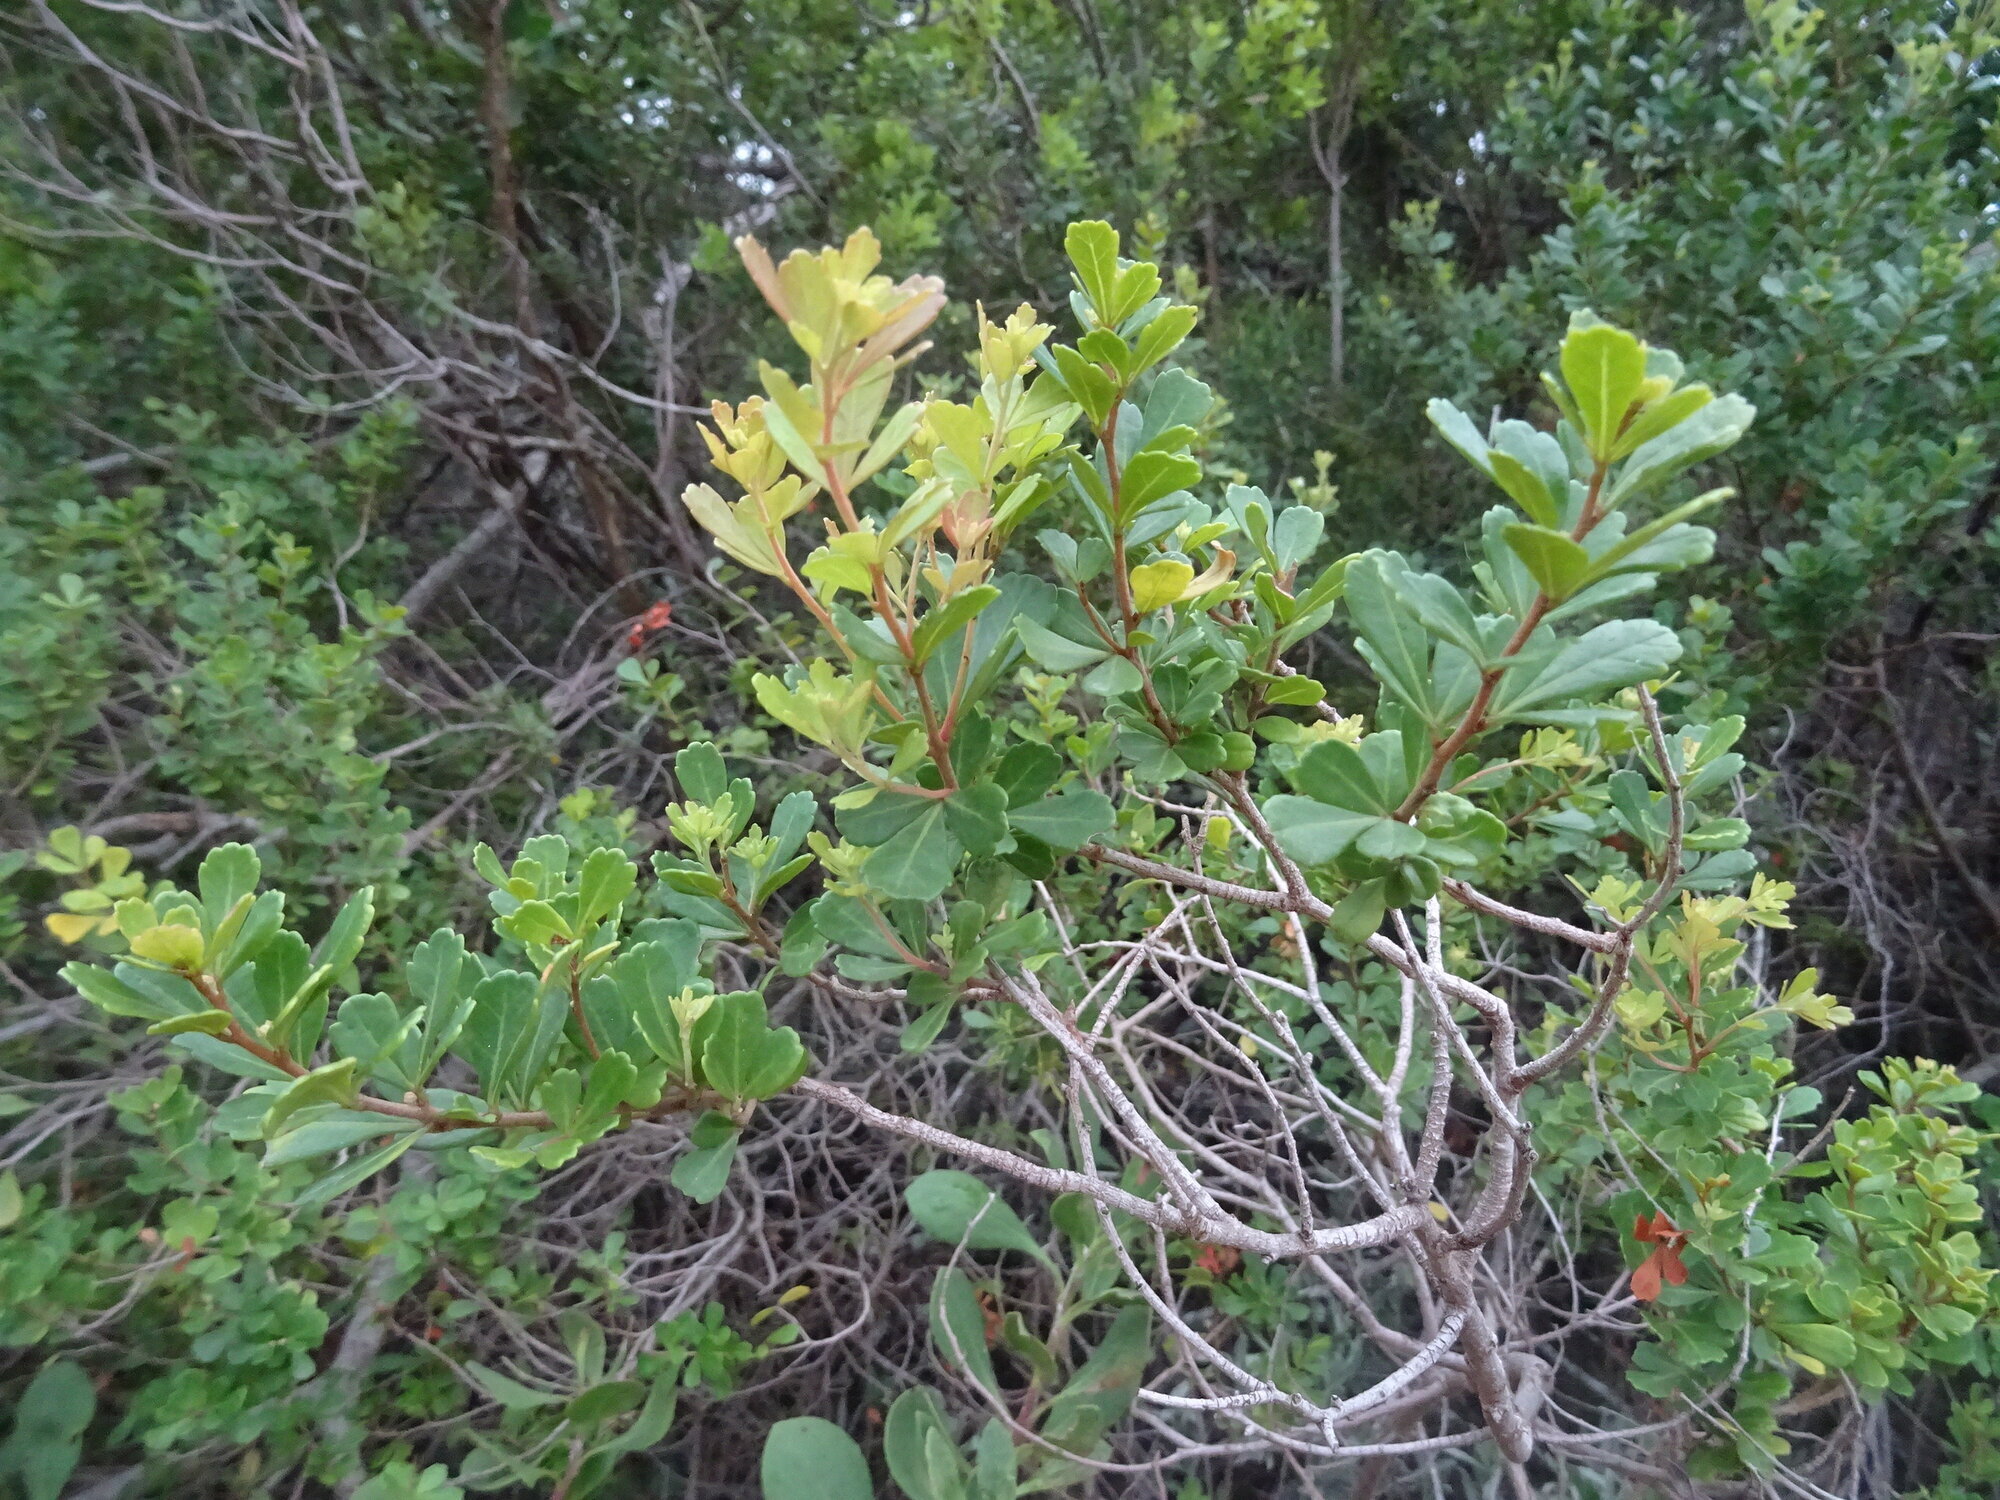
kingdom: Plantae
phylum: Tracheophyta
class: Magnoliopsida
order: Sapindales
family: Anacardiaceae
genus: Searsia
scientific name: Searsia crenata
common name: Crowberry
